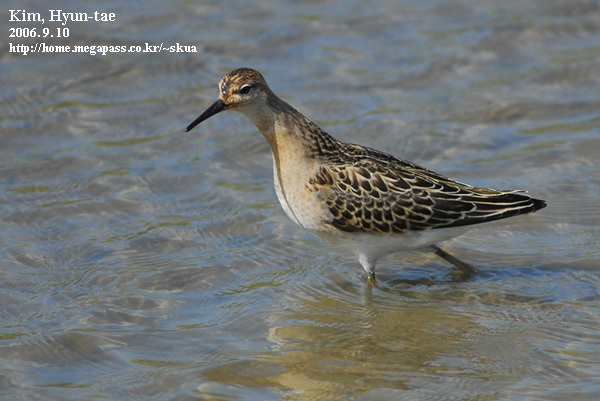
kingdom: Animalia
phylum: Chordata
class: Aves
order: Charadriiformes
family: Scolopacidae
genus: Calidris
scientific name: Calidris pugnax
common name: Ruff
